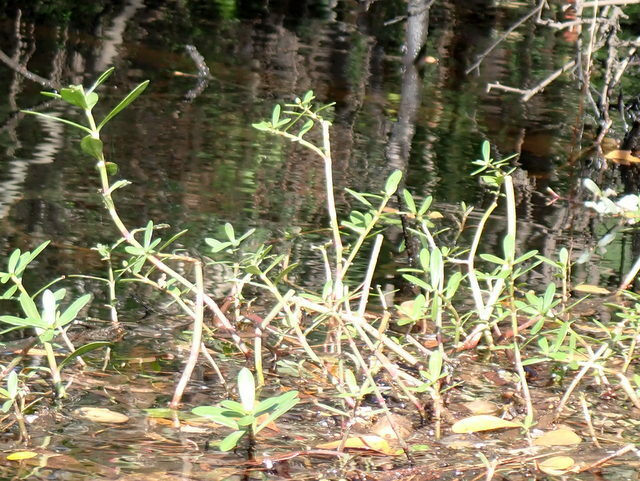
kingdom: Plantae
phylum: Tracheophyta
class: Magnoliopsida
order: Caryophyllales
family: Amaranthaceae
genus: Alternanthera
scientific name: Alternanthera philoxeroides
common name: Alligatorweed
